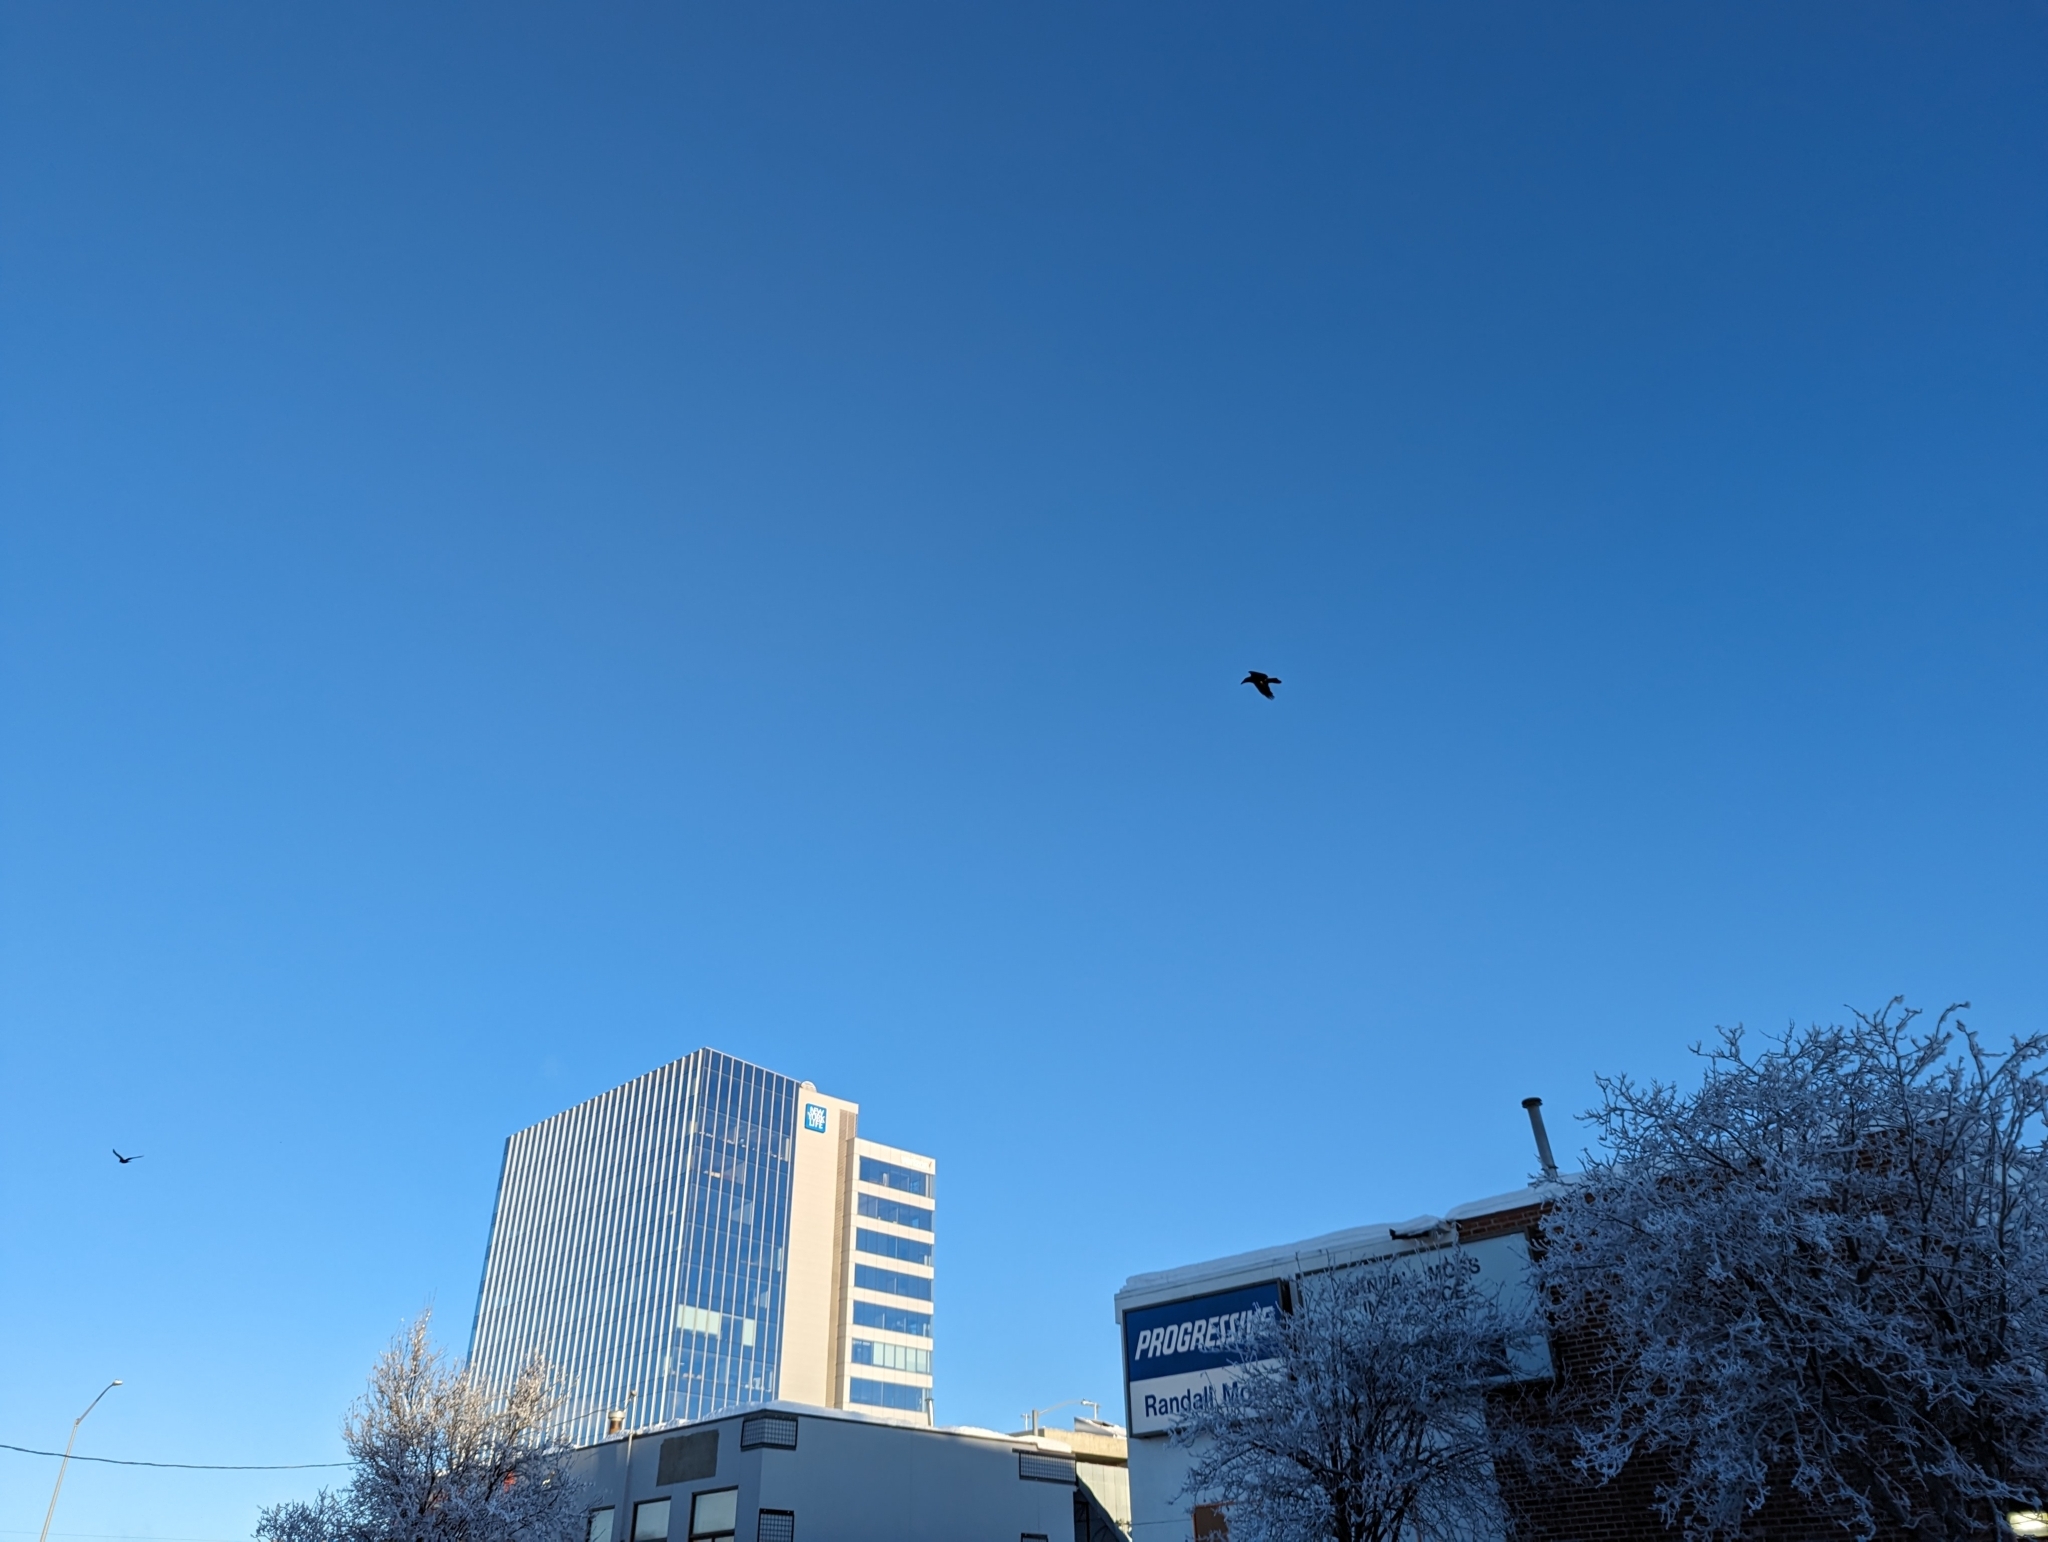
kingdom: Animalia
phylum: Chordata
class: Aves
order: Passeriformes
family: Corvidae
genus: Corvus
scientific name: Corvus corax
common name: Common raven
